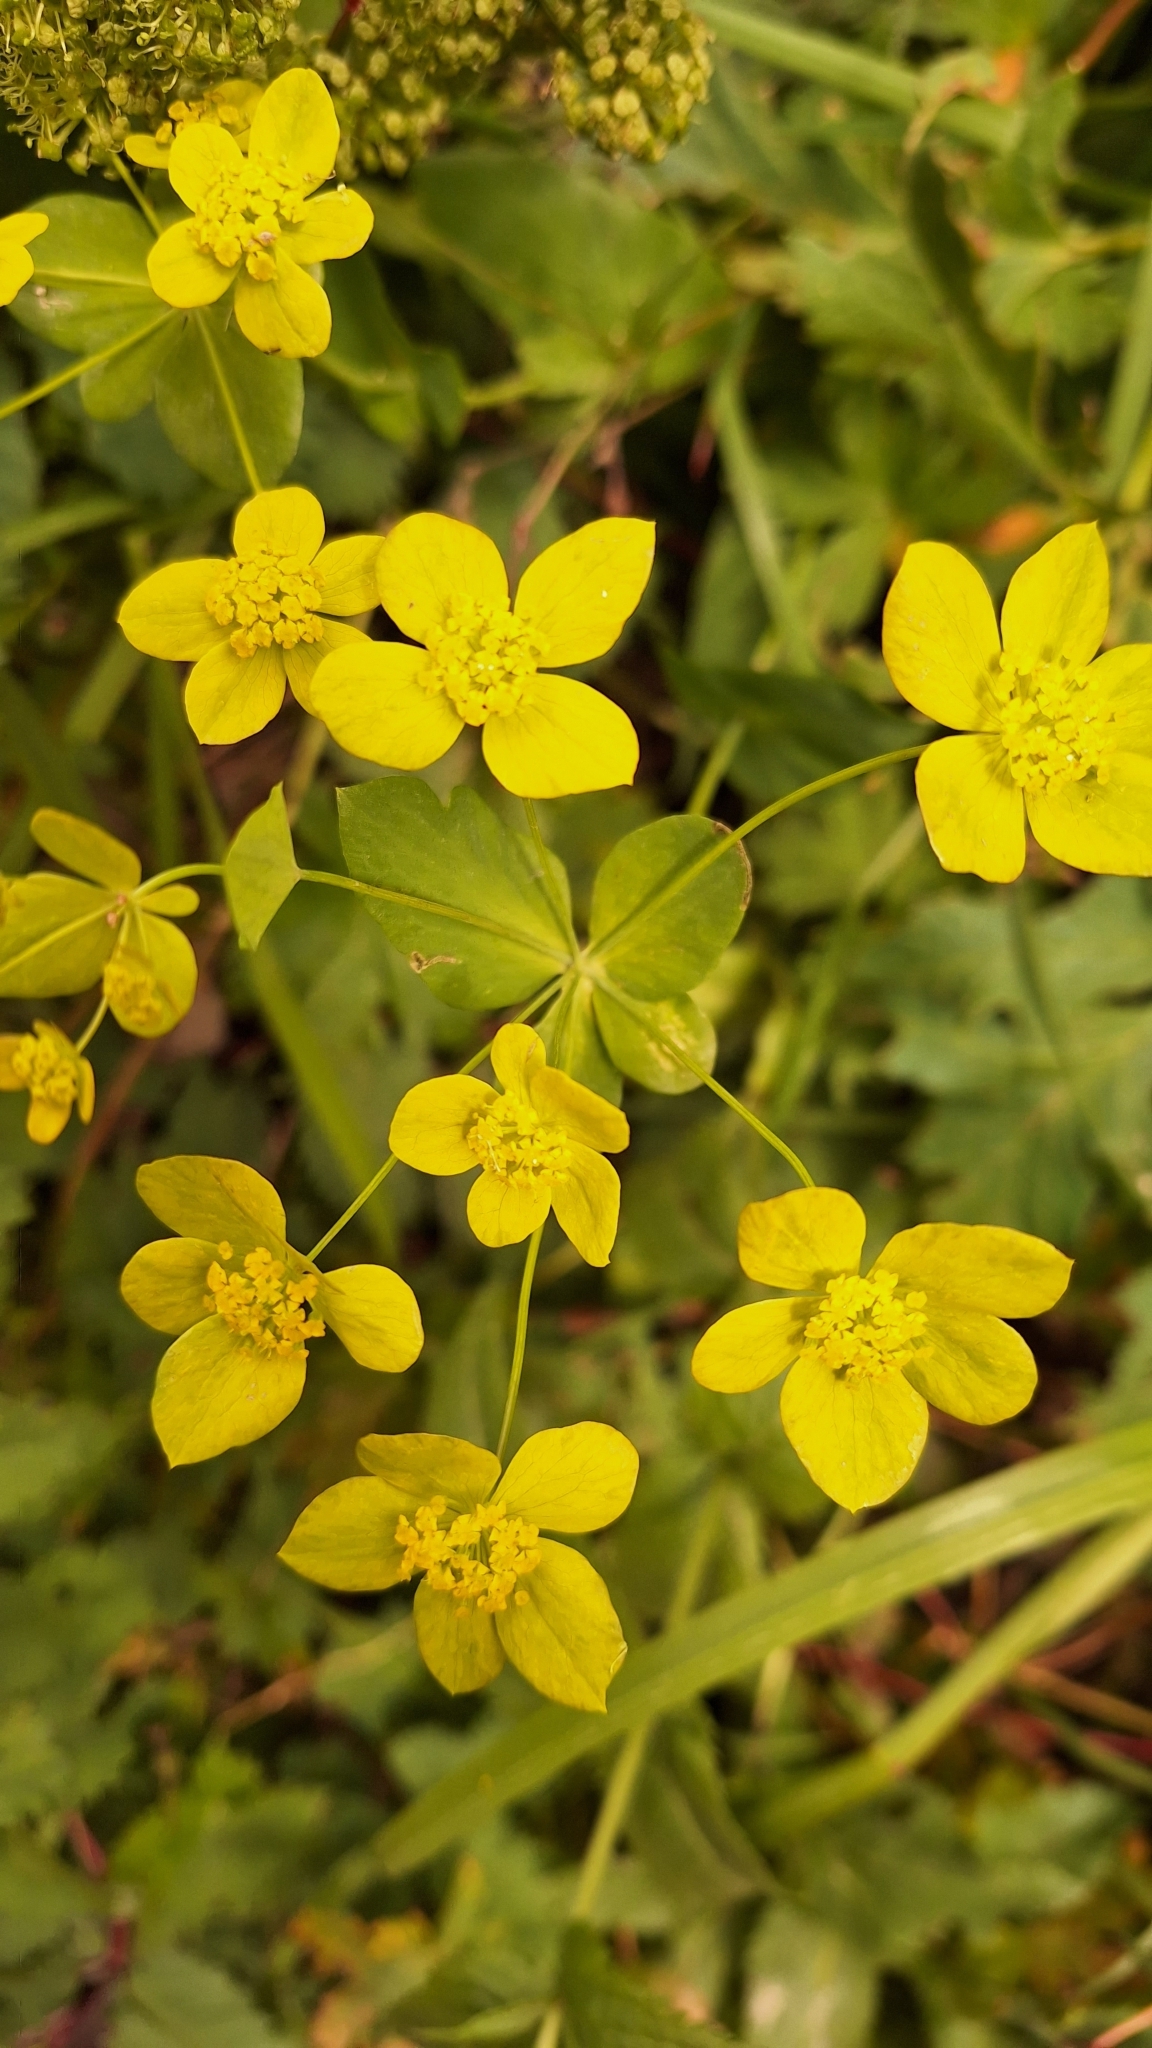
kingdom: Plantae
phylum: Tracheophyta
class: Magnoliopsida
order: Apiales
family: Apiaceae
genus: Bupleurum
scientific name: Bupleurum aureum
